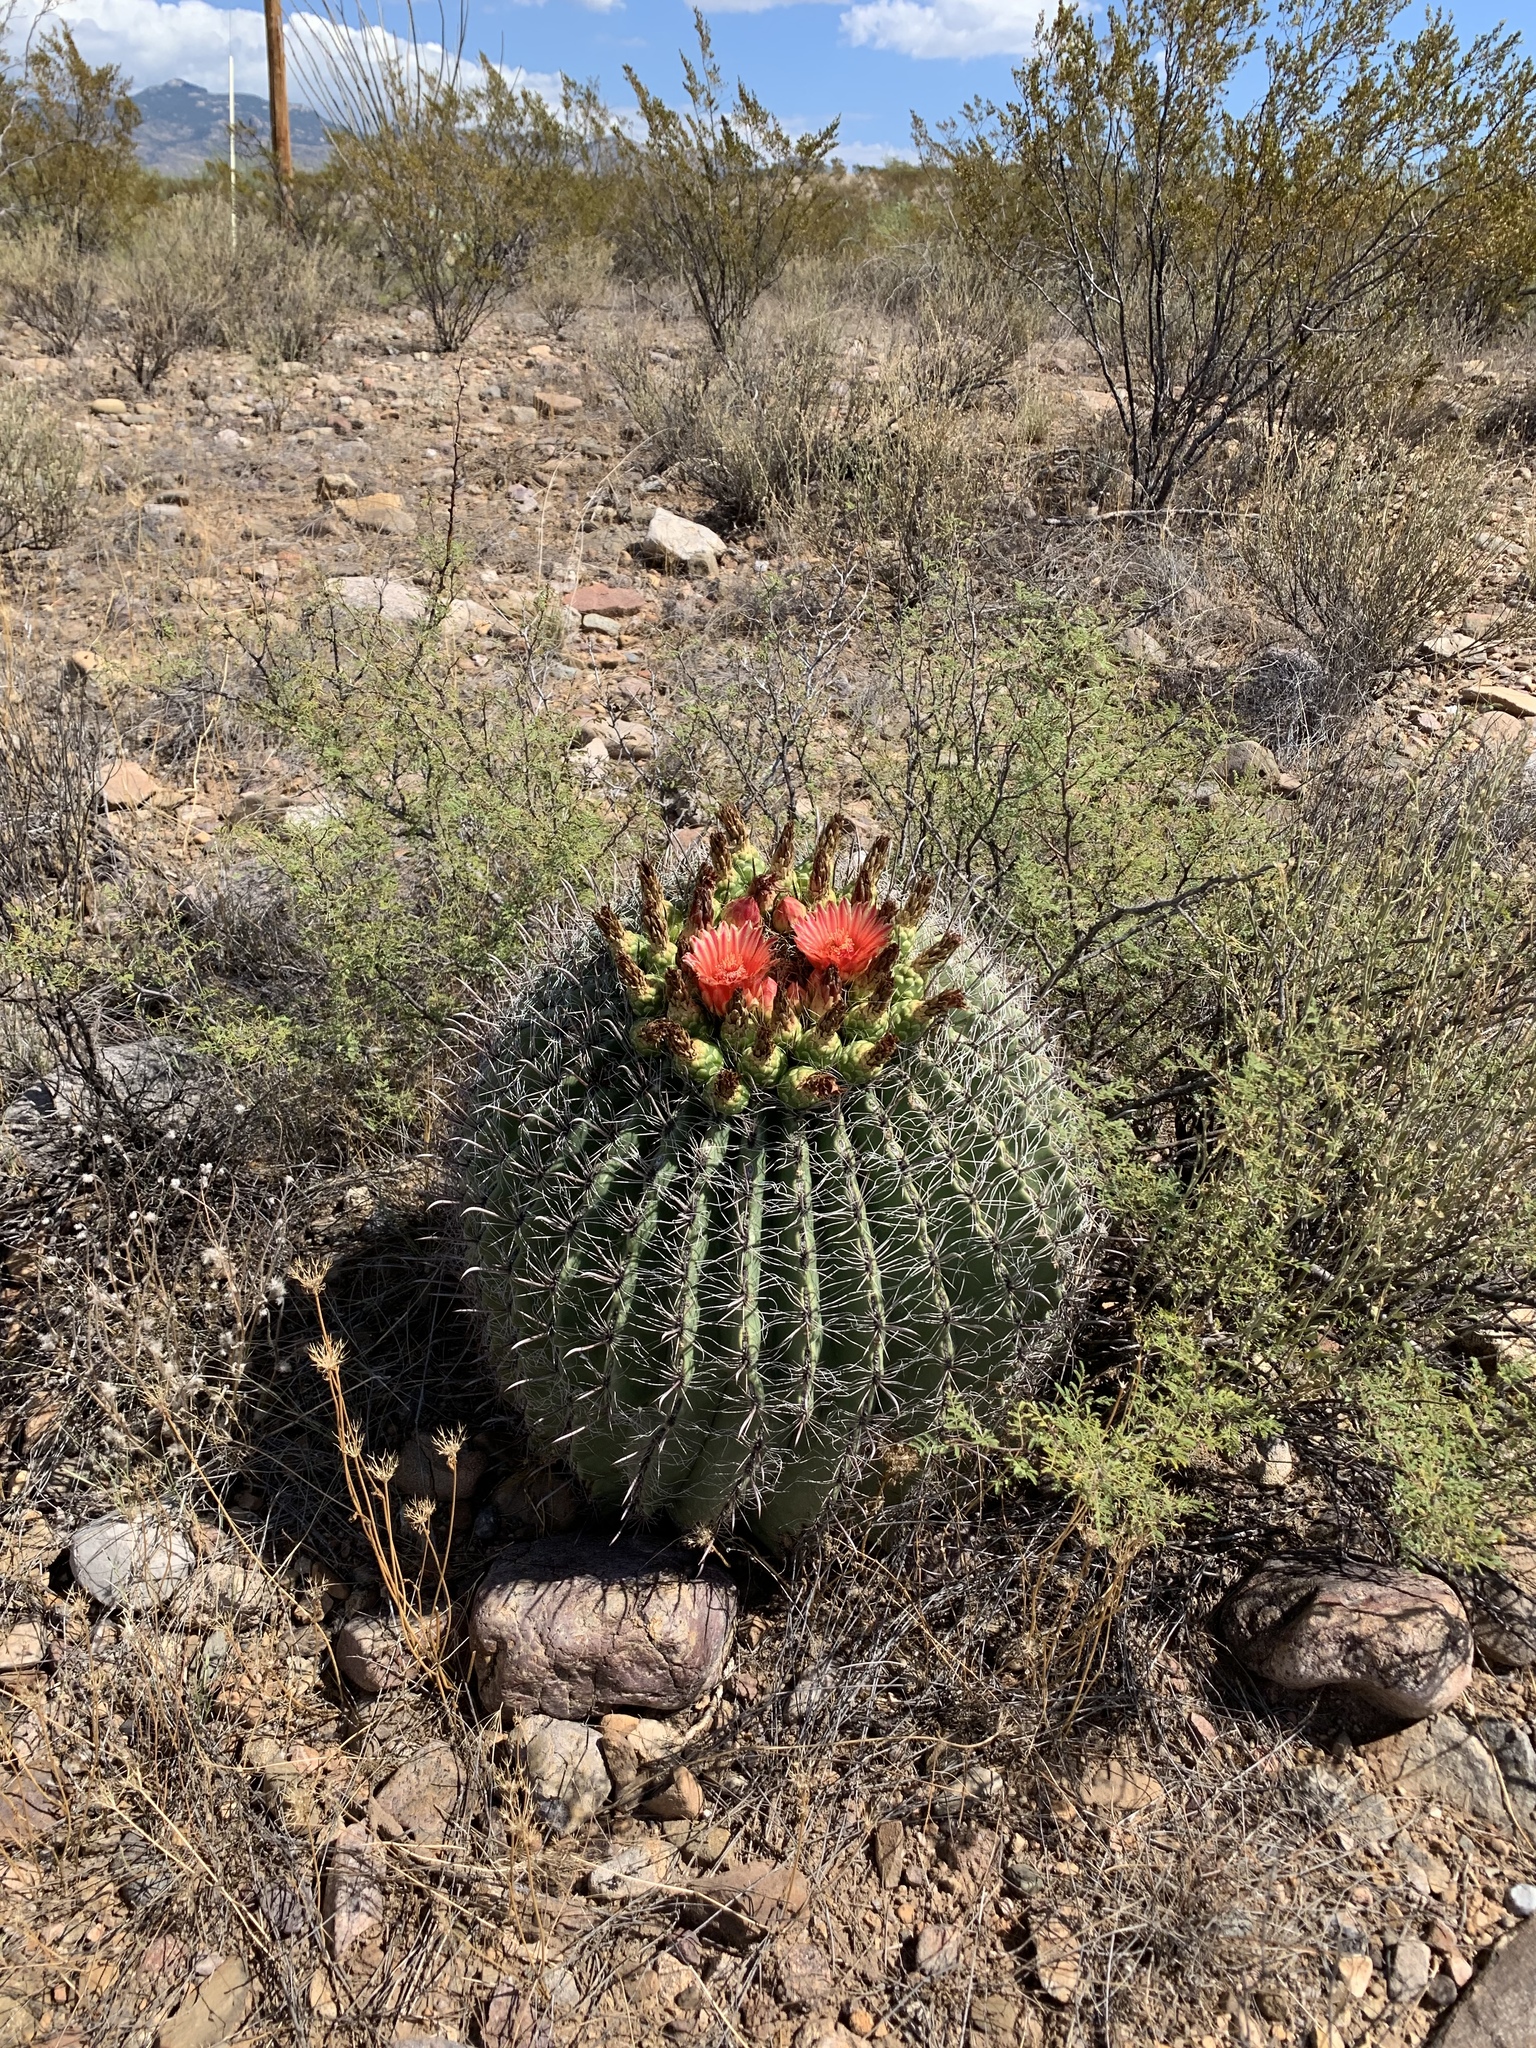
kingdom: Plantae
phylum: Tracheophyta
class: Magnoliopsida
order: Caryophyllales
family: Cactaceae
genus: Ferocactus
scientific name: Ferocactus wislizeni
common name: Candy barrel cactus
